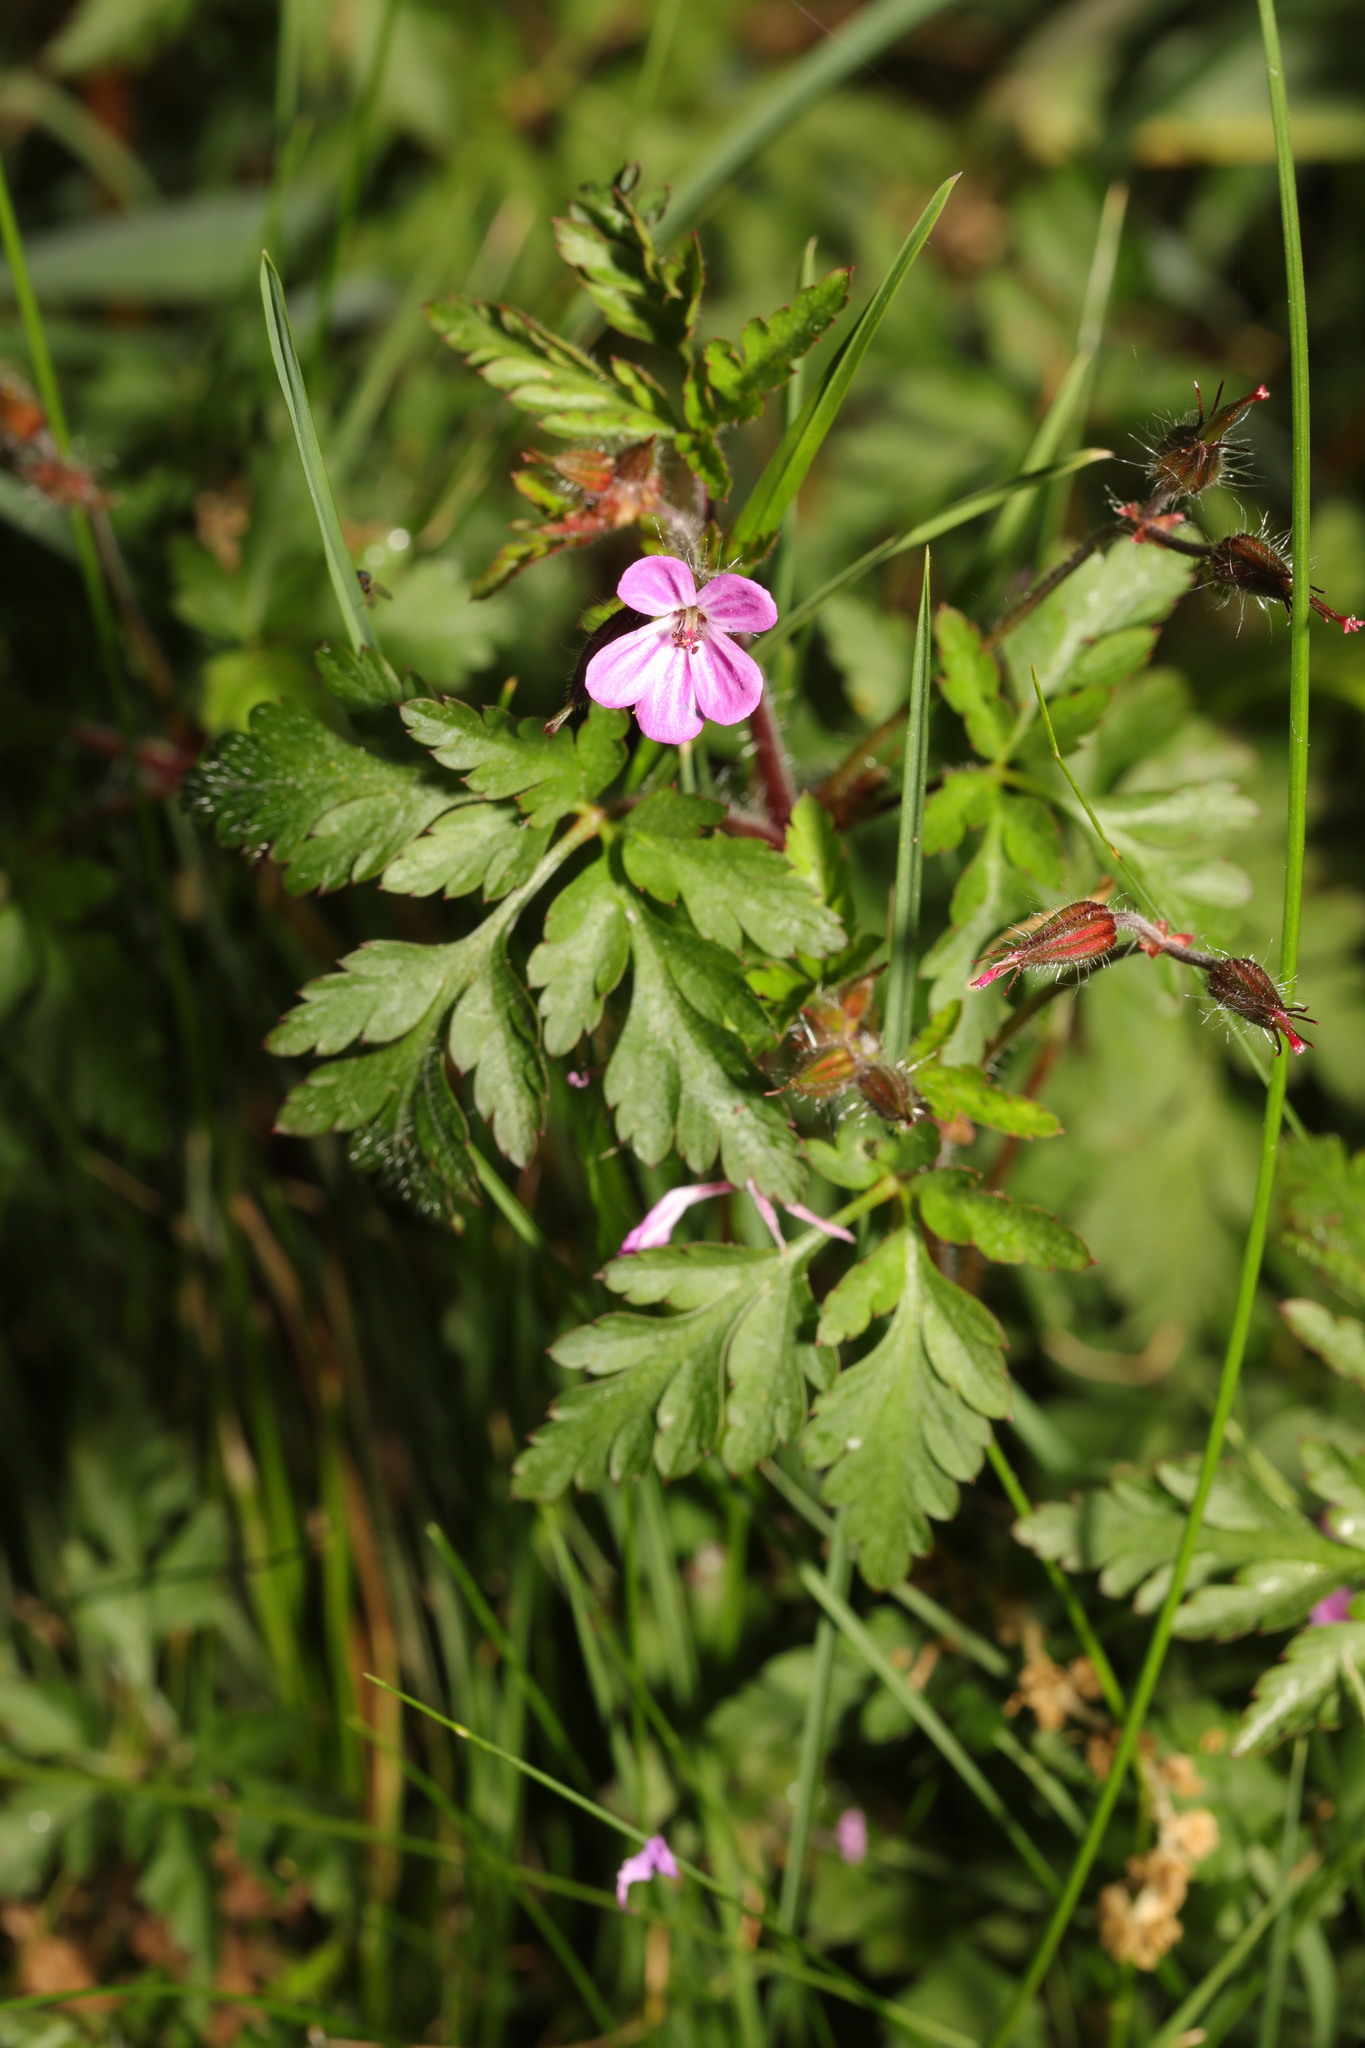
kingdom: Plantae
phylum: Tracheophyta
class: Magnoliopsida
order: Geraniales
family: Geraniaceae
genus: Geranium
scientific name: Geranium robertianum
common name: Herb-robert
